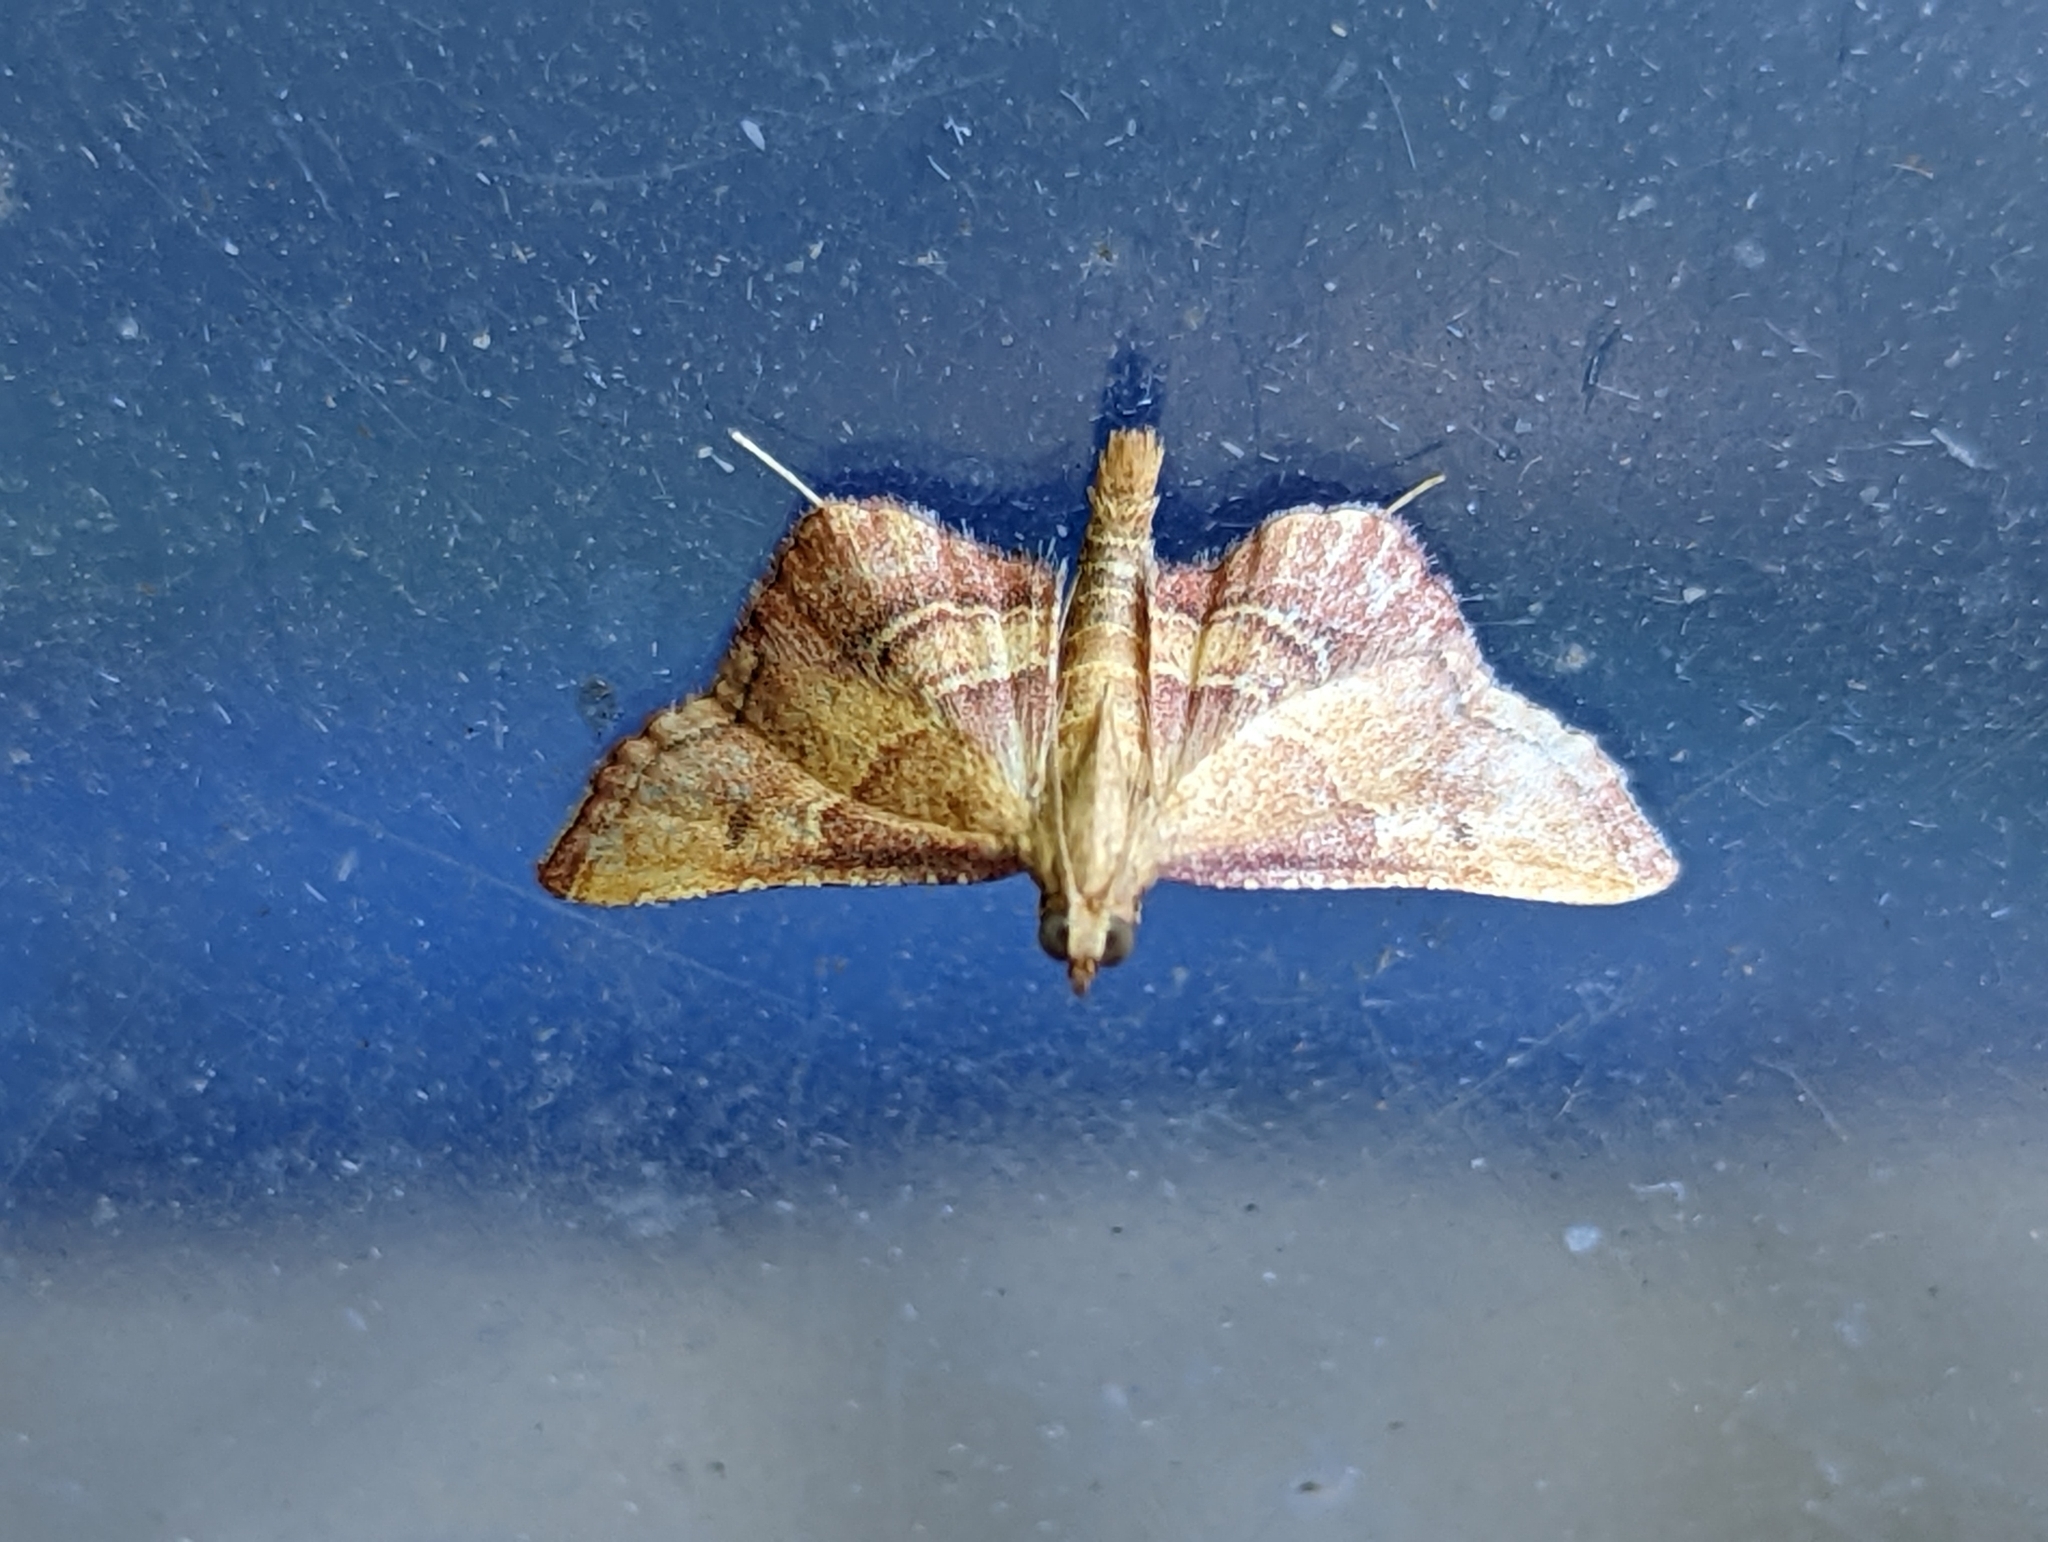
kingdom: Animalia
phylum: Arthropoda
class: Insecta
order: Lepidoptera
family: Pyralidae
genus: Endotricha
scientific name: Endotricha flammealis
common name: Rosy tabby
